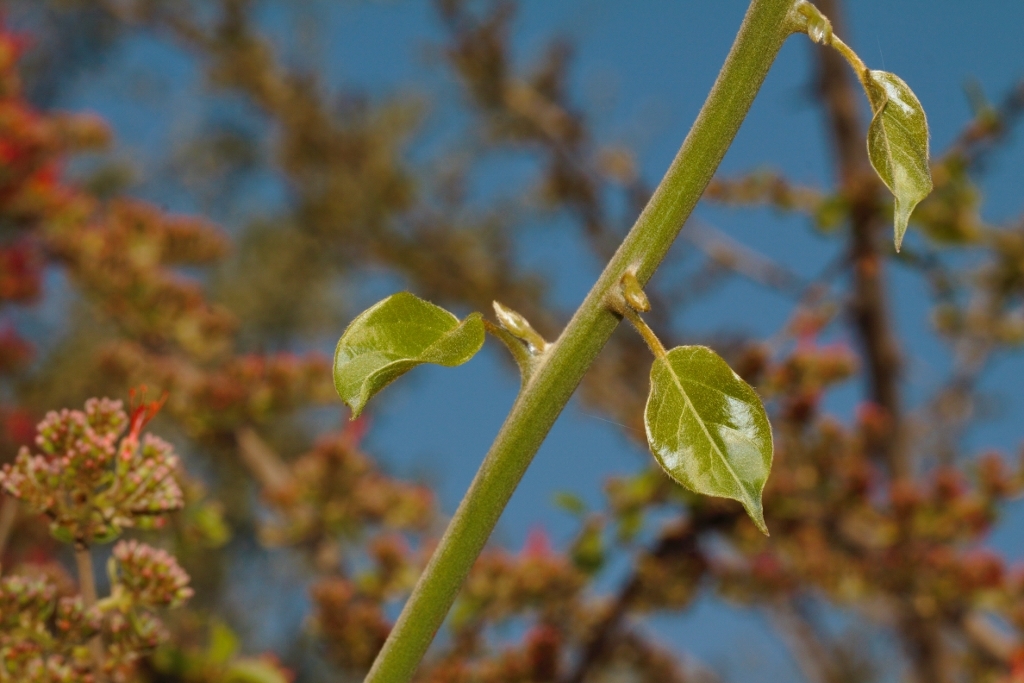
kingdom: Plantae
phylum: Tracheophyta
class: Magnoliopsida
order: Myrtales
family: Combretaceae
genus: Combretum
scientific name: Combretum microphyllum
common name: Burningbush
